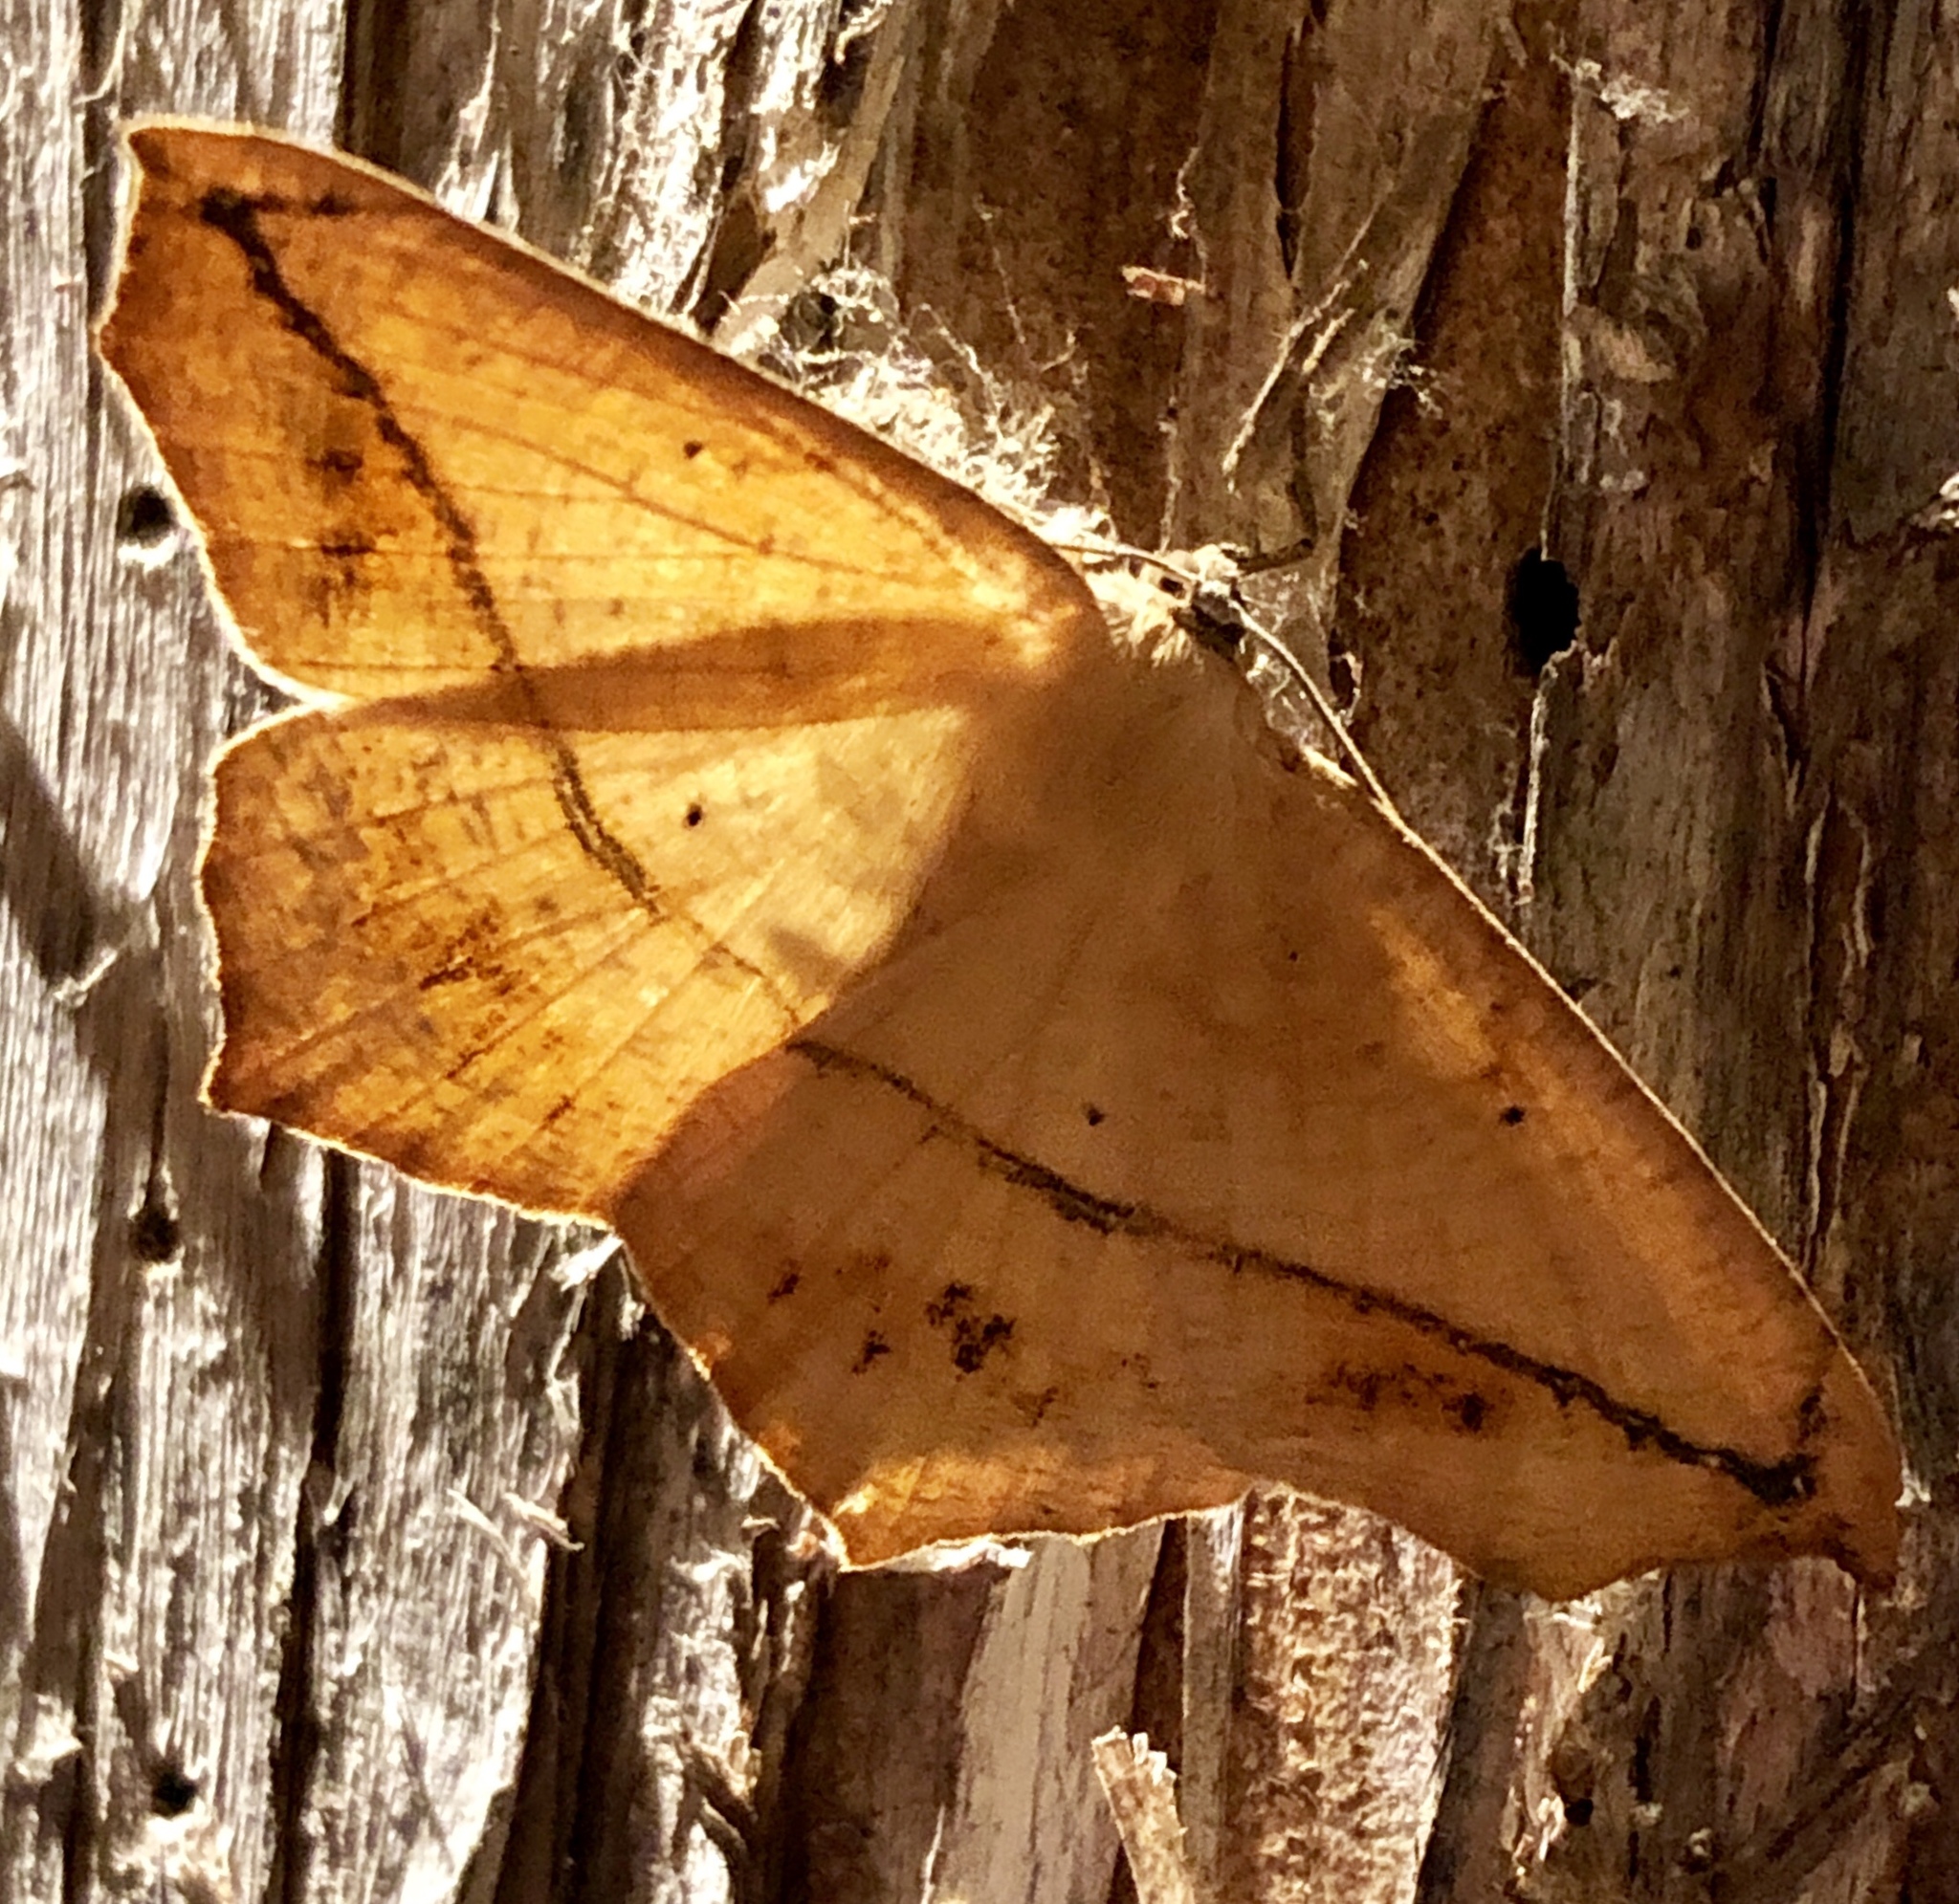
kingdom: Animalia
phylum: Arthropoda
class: Insecta
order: Lepidoptera
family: Geometridae
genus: Prochoerodes
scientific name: Prochoerodes lineola
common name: Large maple spanworm
